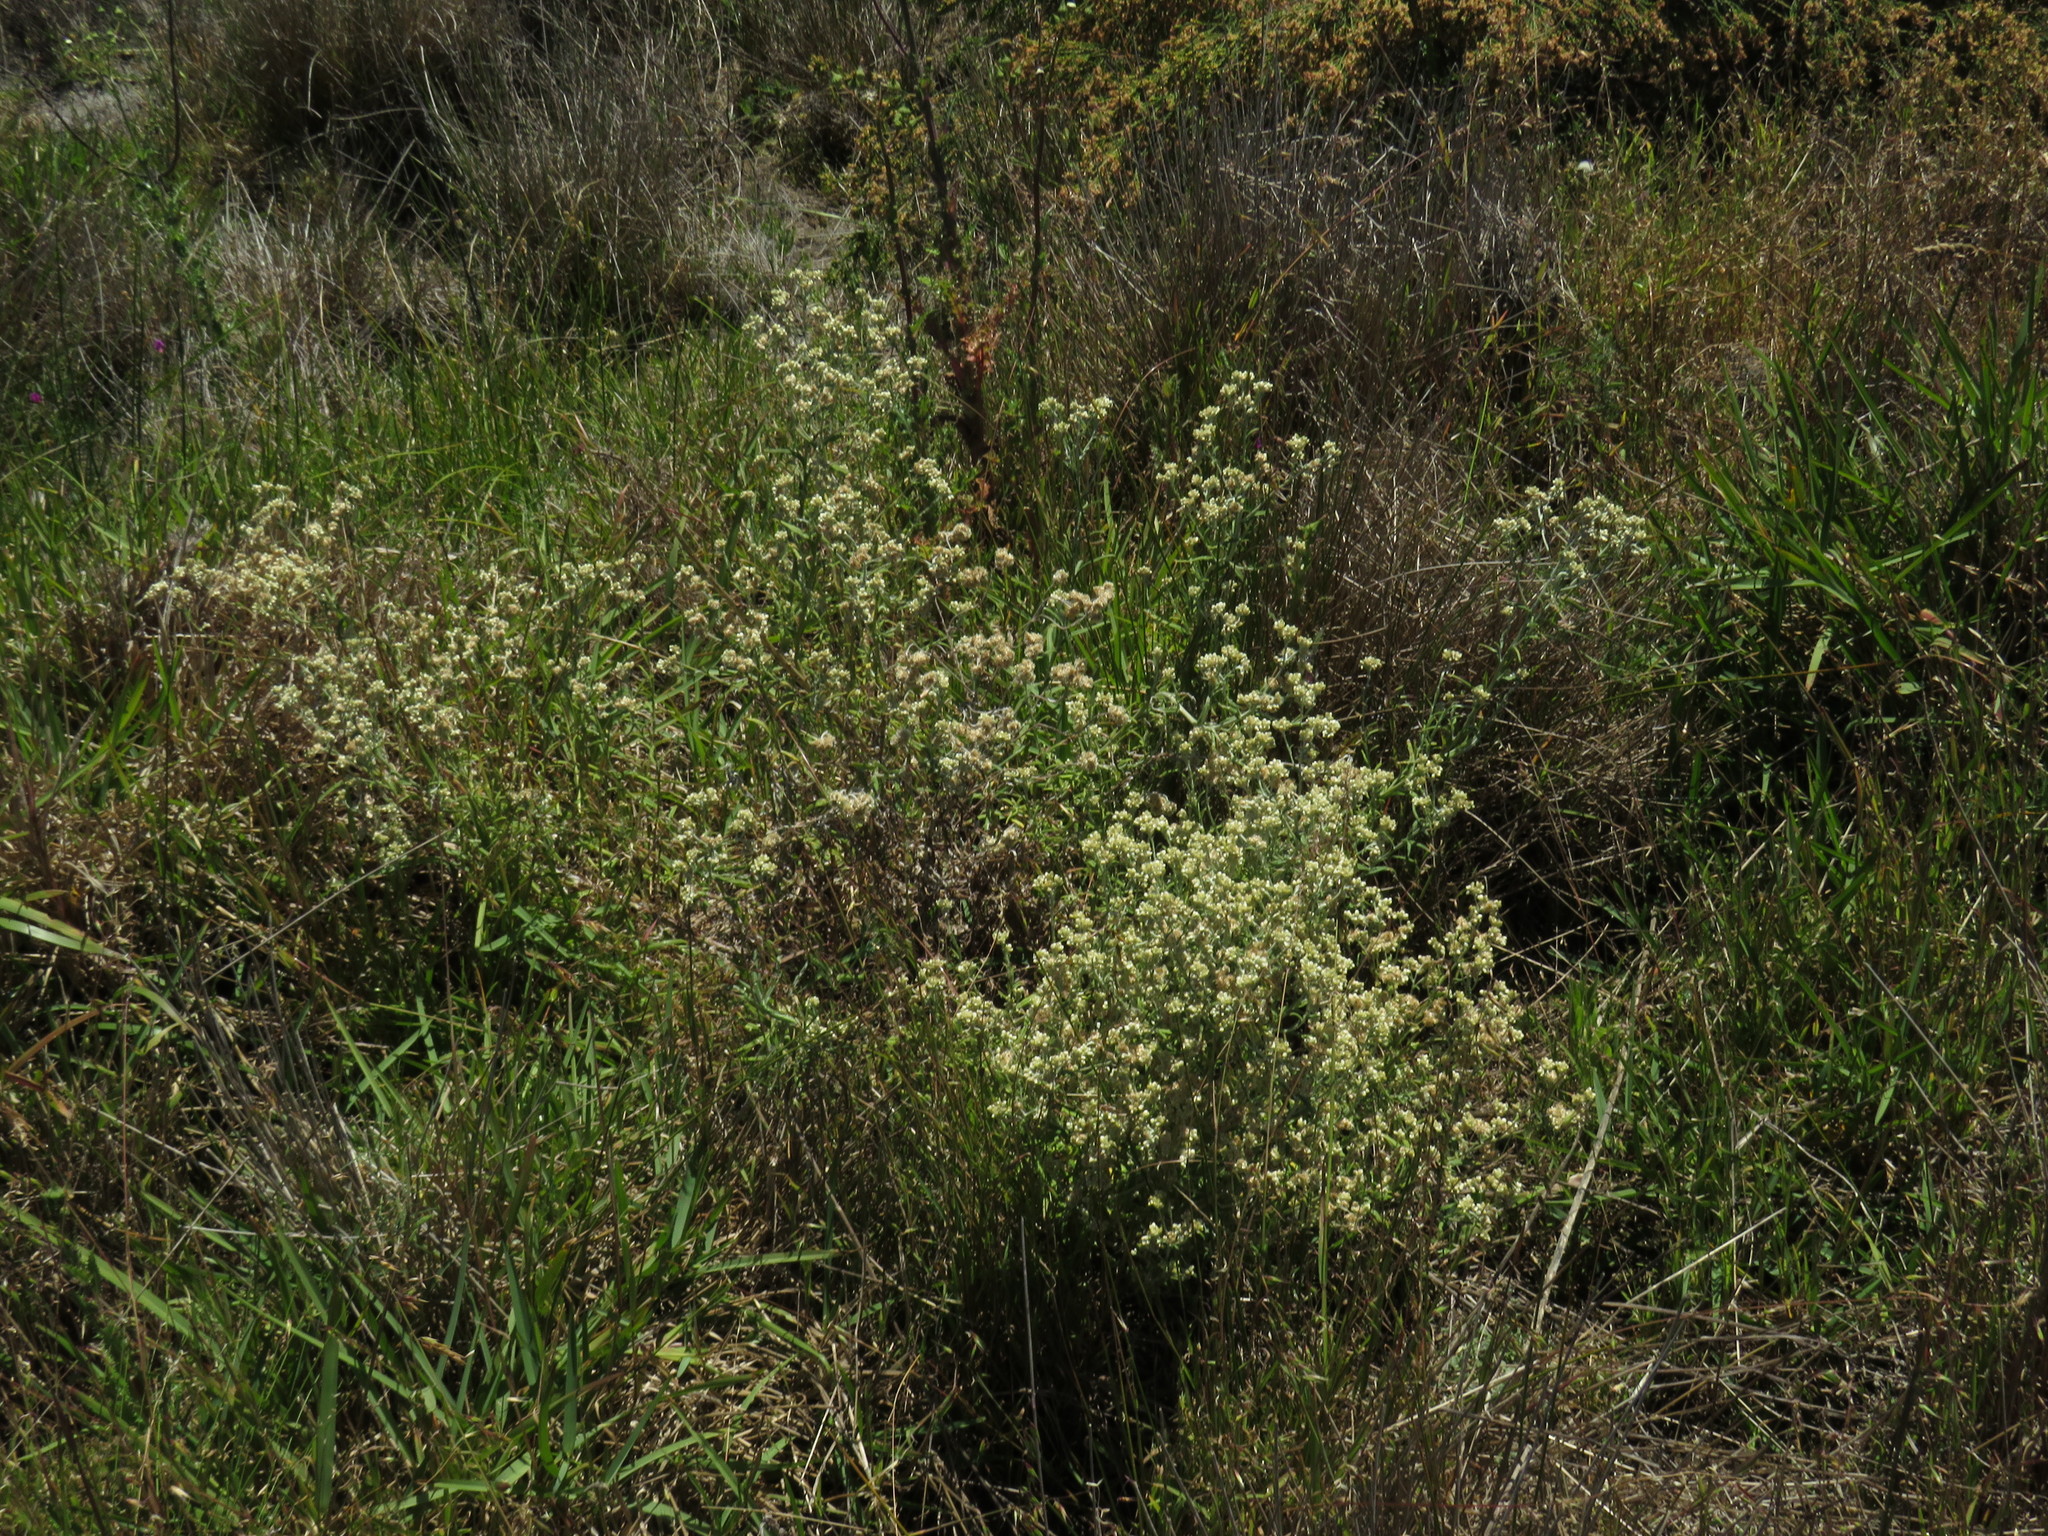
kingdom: Plantae
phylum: Tracheophyta
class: Magnoliopsida
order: Asterales
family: Asteraceae
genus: Helichrysum
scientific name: Helichrysum luteoalbum
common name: Daisy
